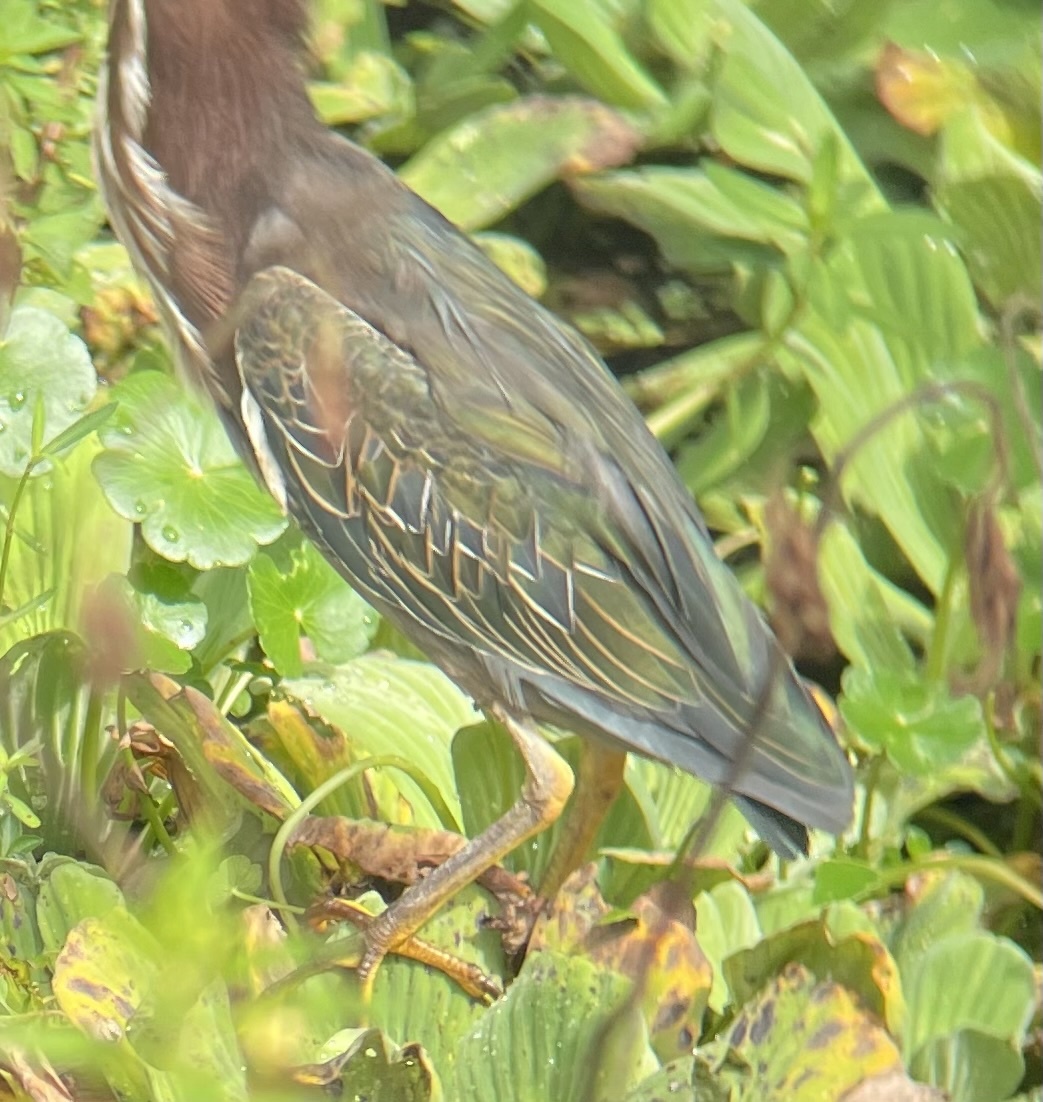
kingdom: Animalia
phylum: Chordata
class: Aves
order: Pelecaniformes
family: Ardeidae
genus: Butorides
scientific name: Butorides virescens
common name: Green heron
